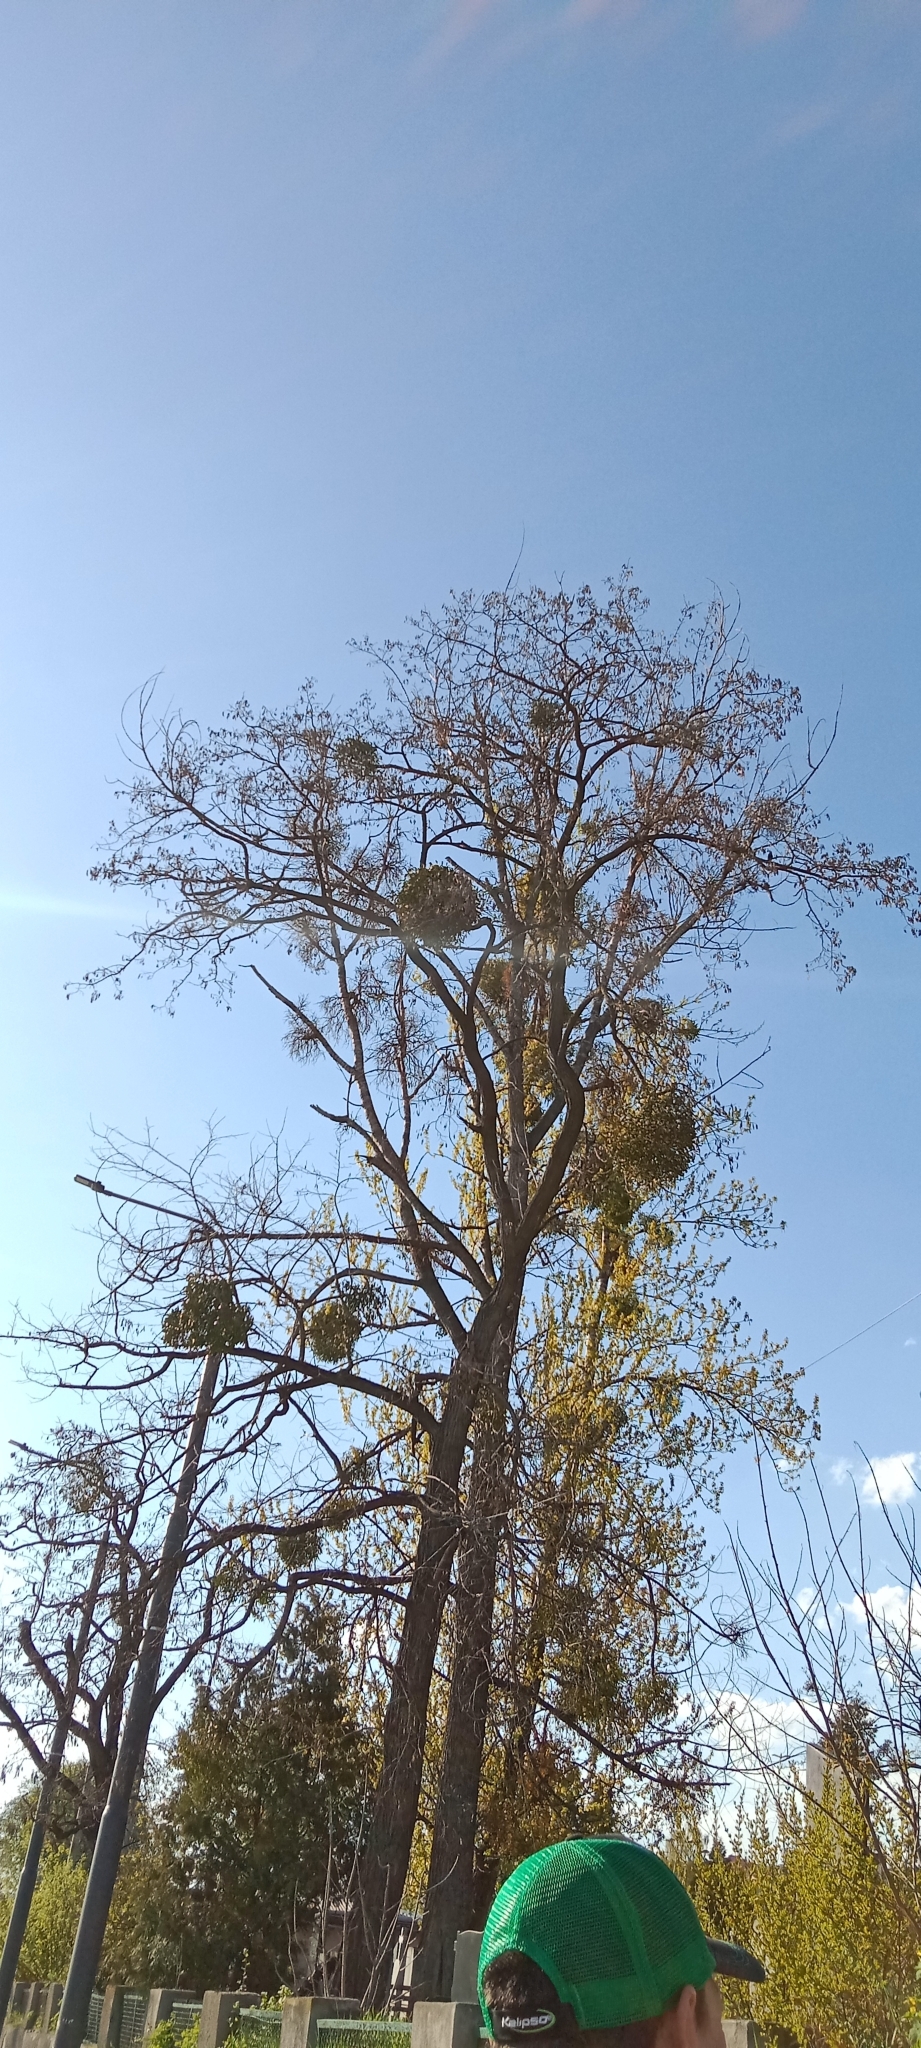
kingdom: Plantae
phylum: Tracheophyta
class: Magnoliopsida
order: Santalales
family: Viscaceae
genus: Viscum
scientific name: Viscum album
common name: Mistletoe
